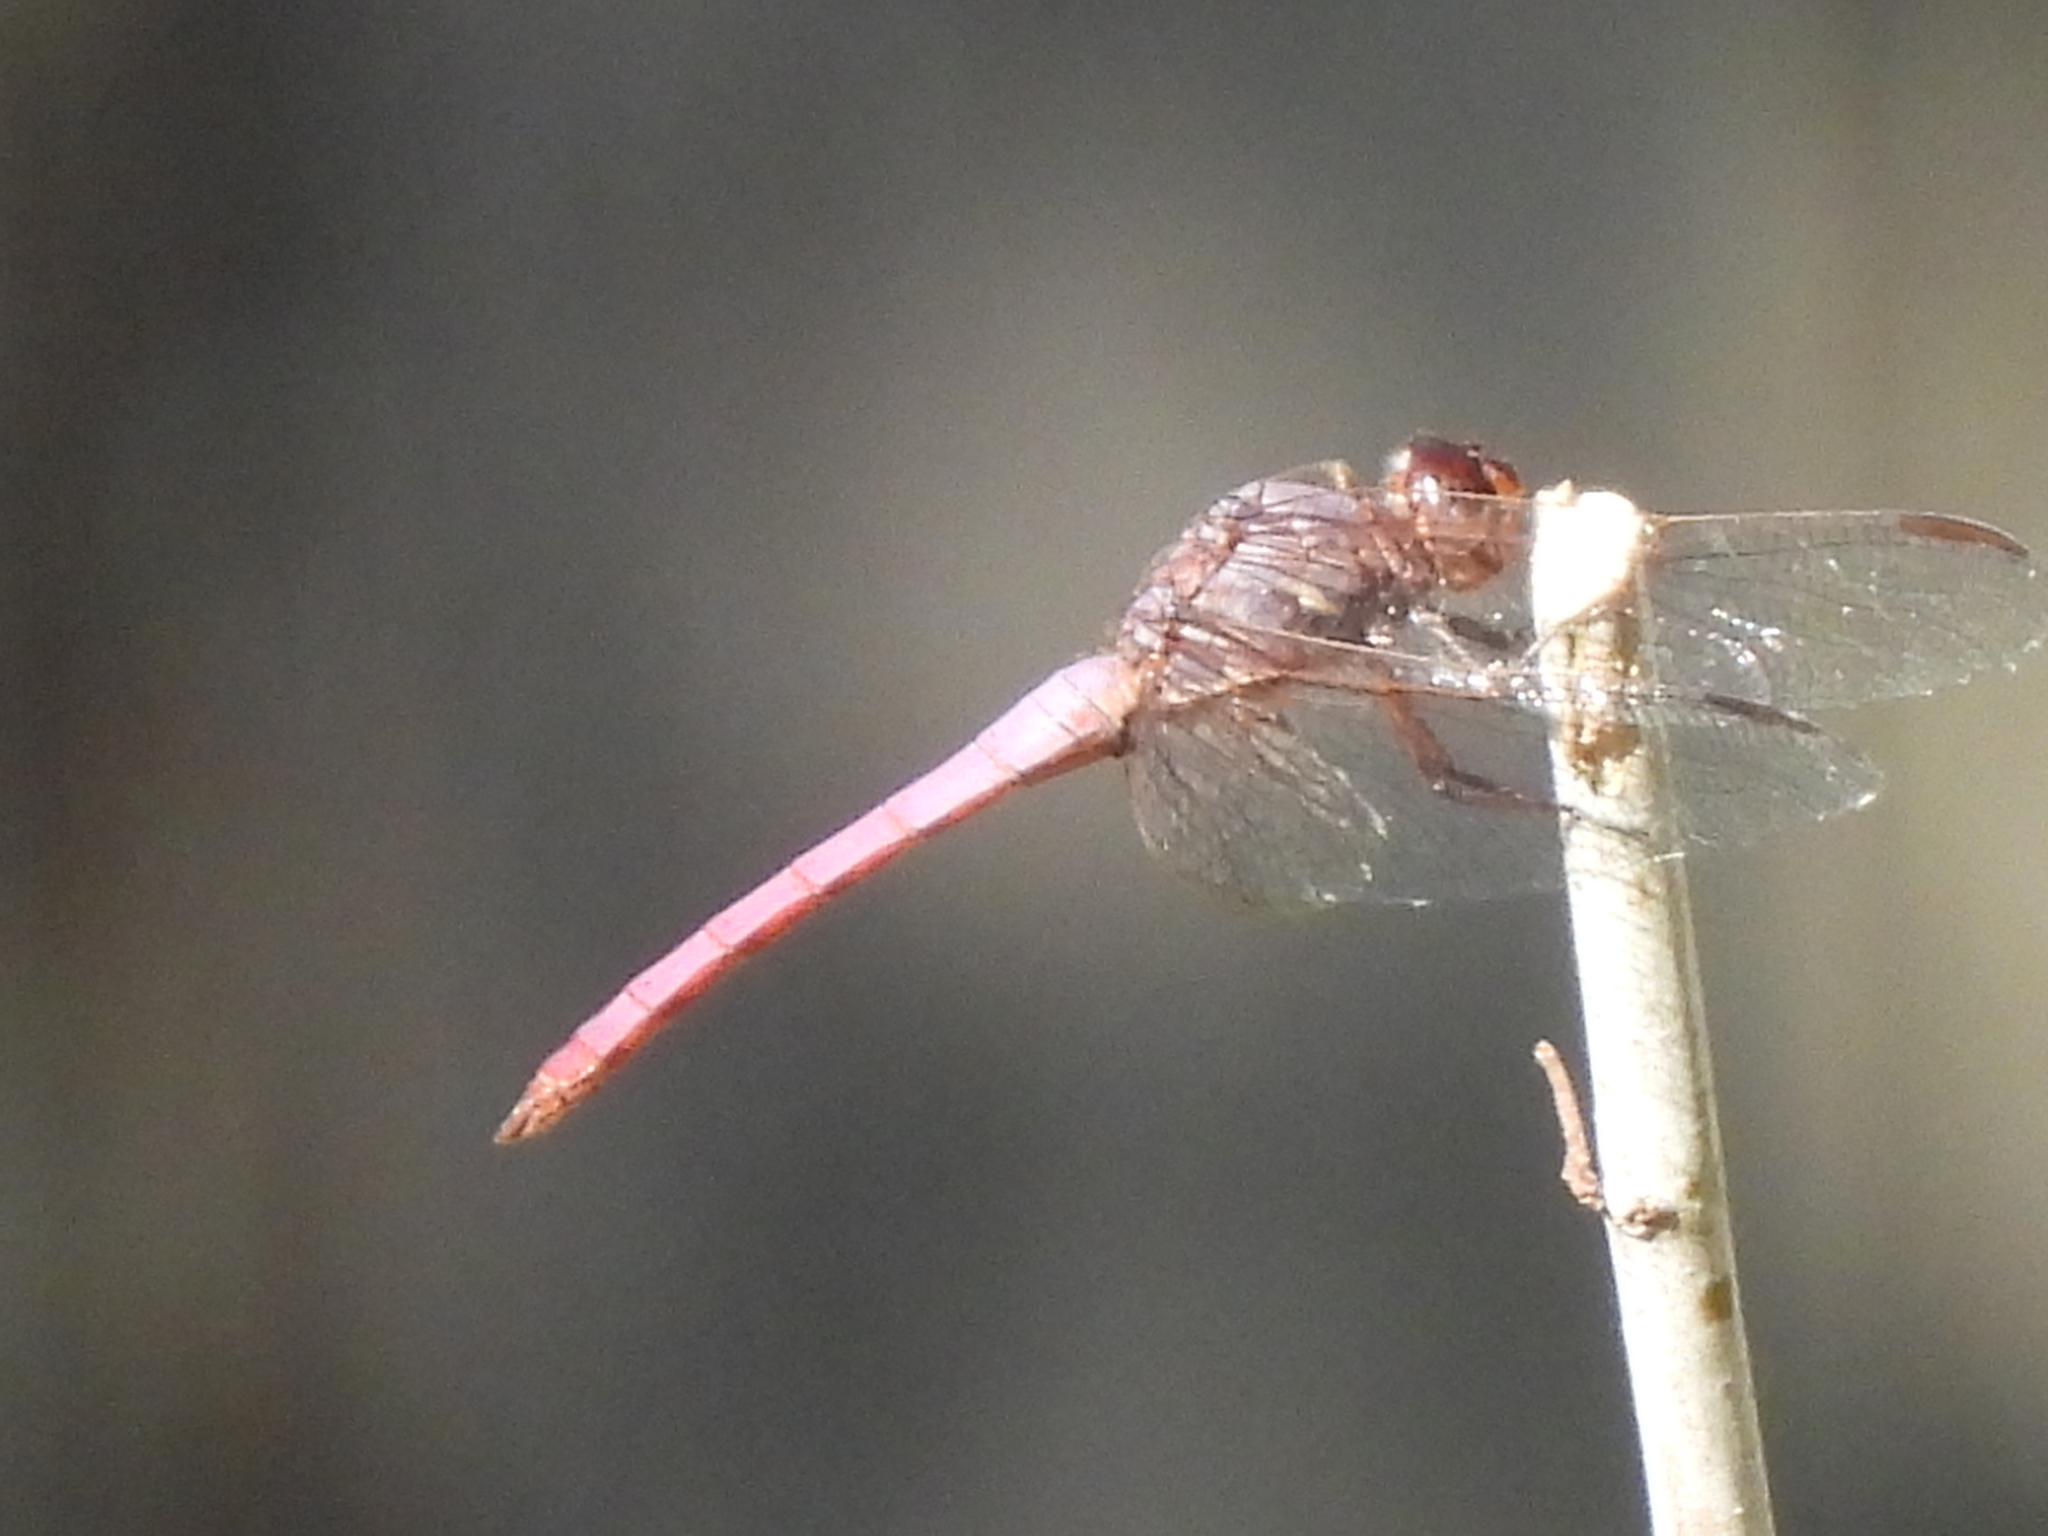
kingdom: Animalia
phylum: Arthropoda
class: Insecta
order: Odonata
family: Libellulidae
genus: Orthemis
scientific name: Orthemis ferruginea
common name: Roseate skimmer
